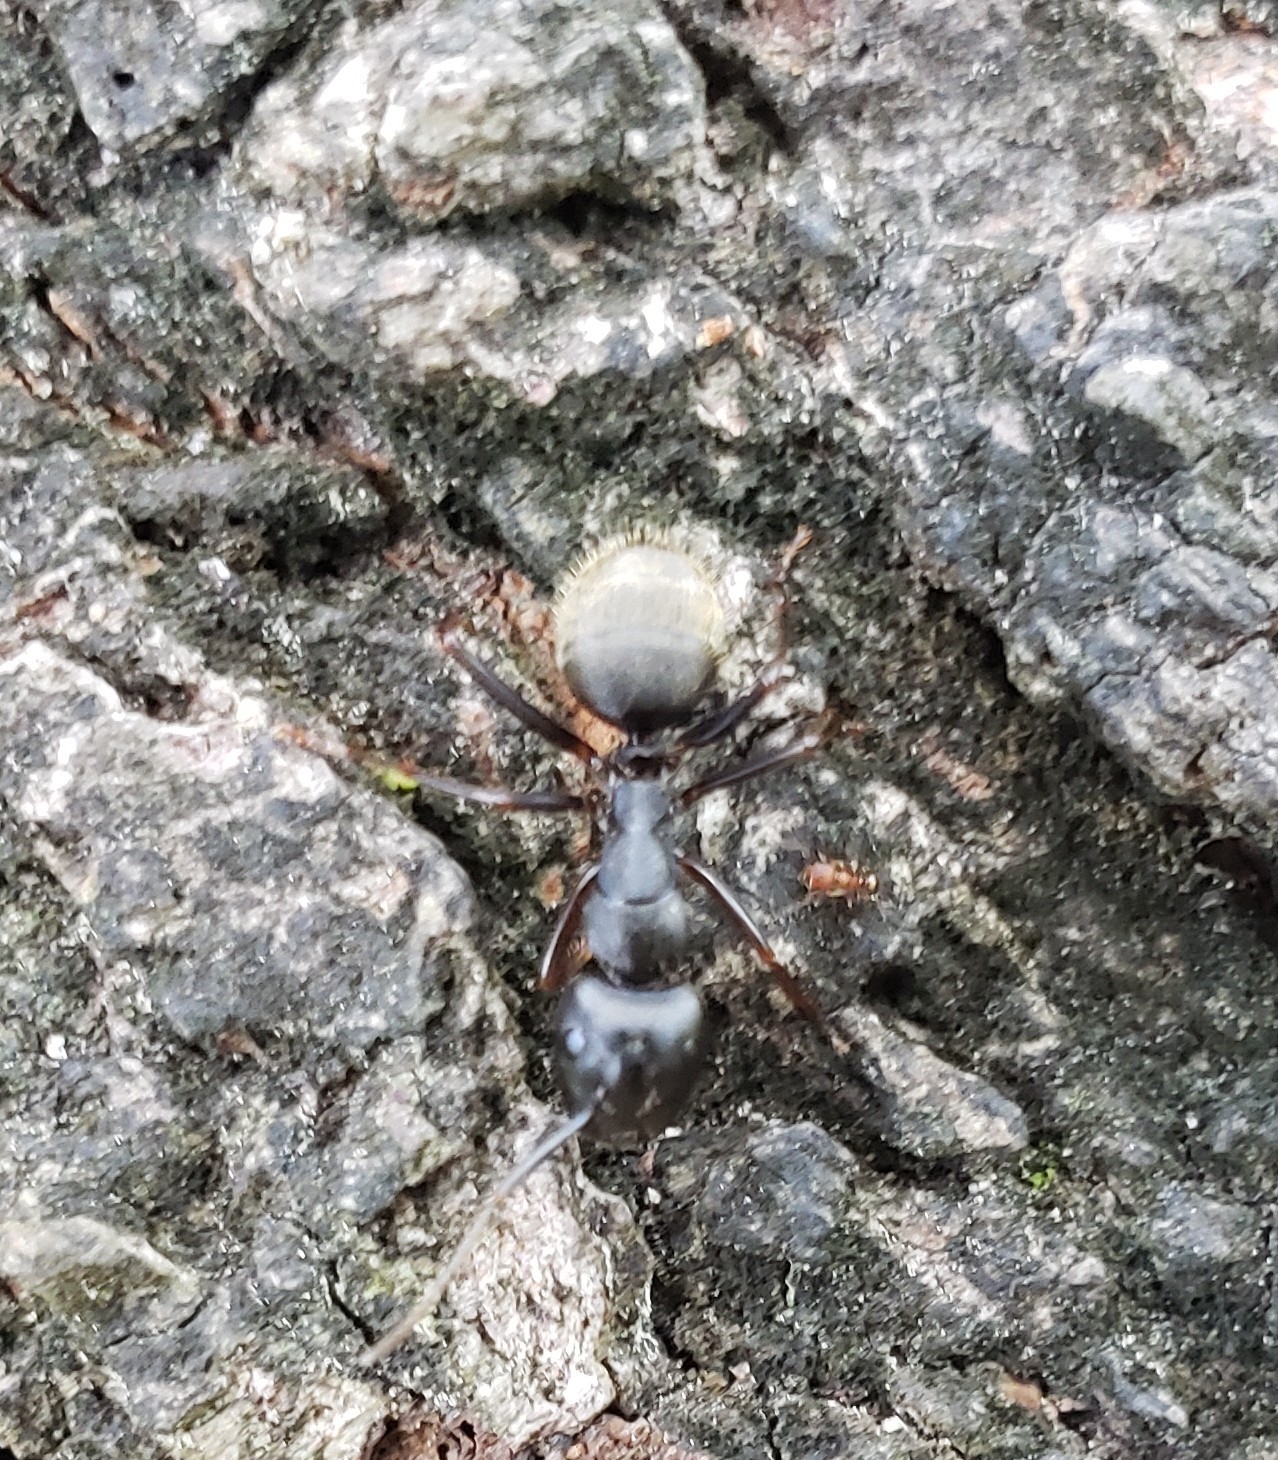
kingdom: Animalia
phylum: Arthropoda
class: Insecta
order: Hymenoptera
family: Formicidae
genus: Camponotus
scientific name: Camponotus pennsylvanicus
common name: Black carpenter ant
